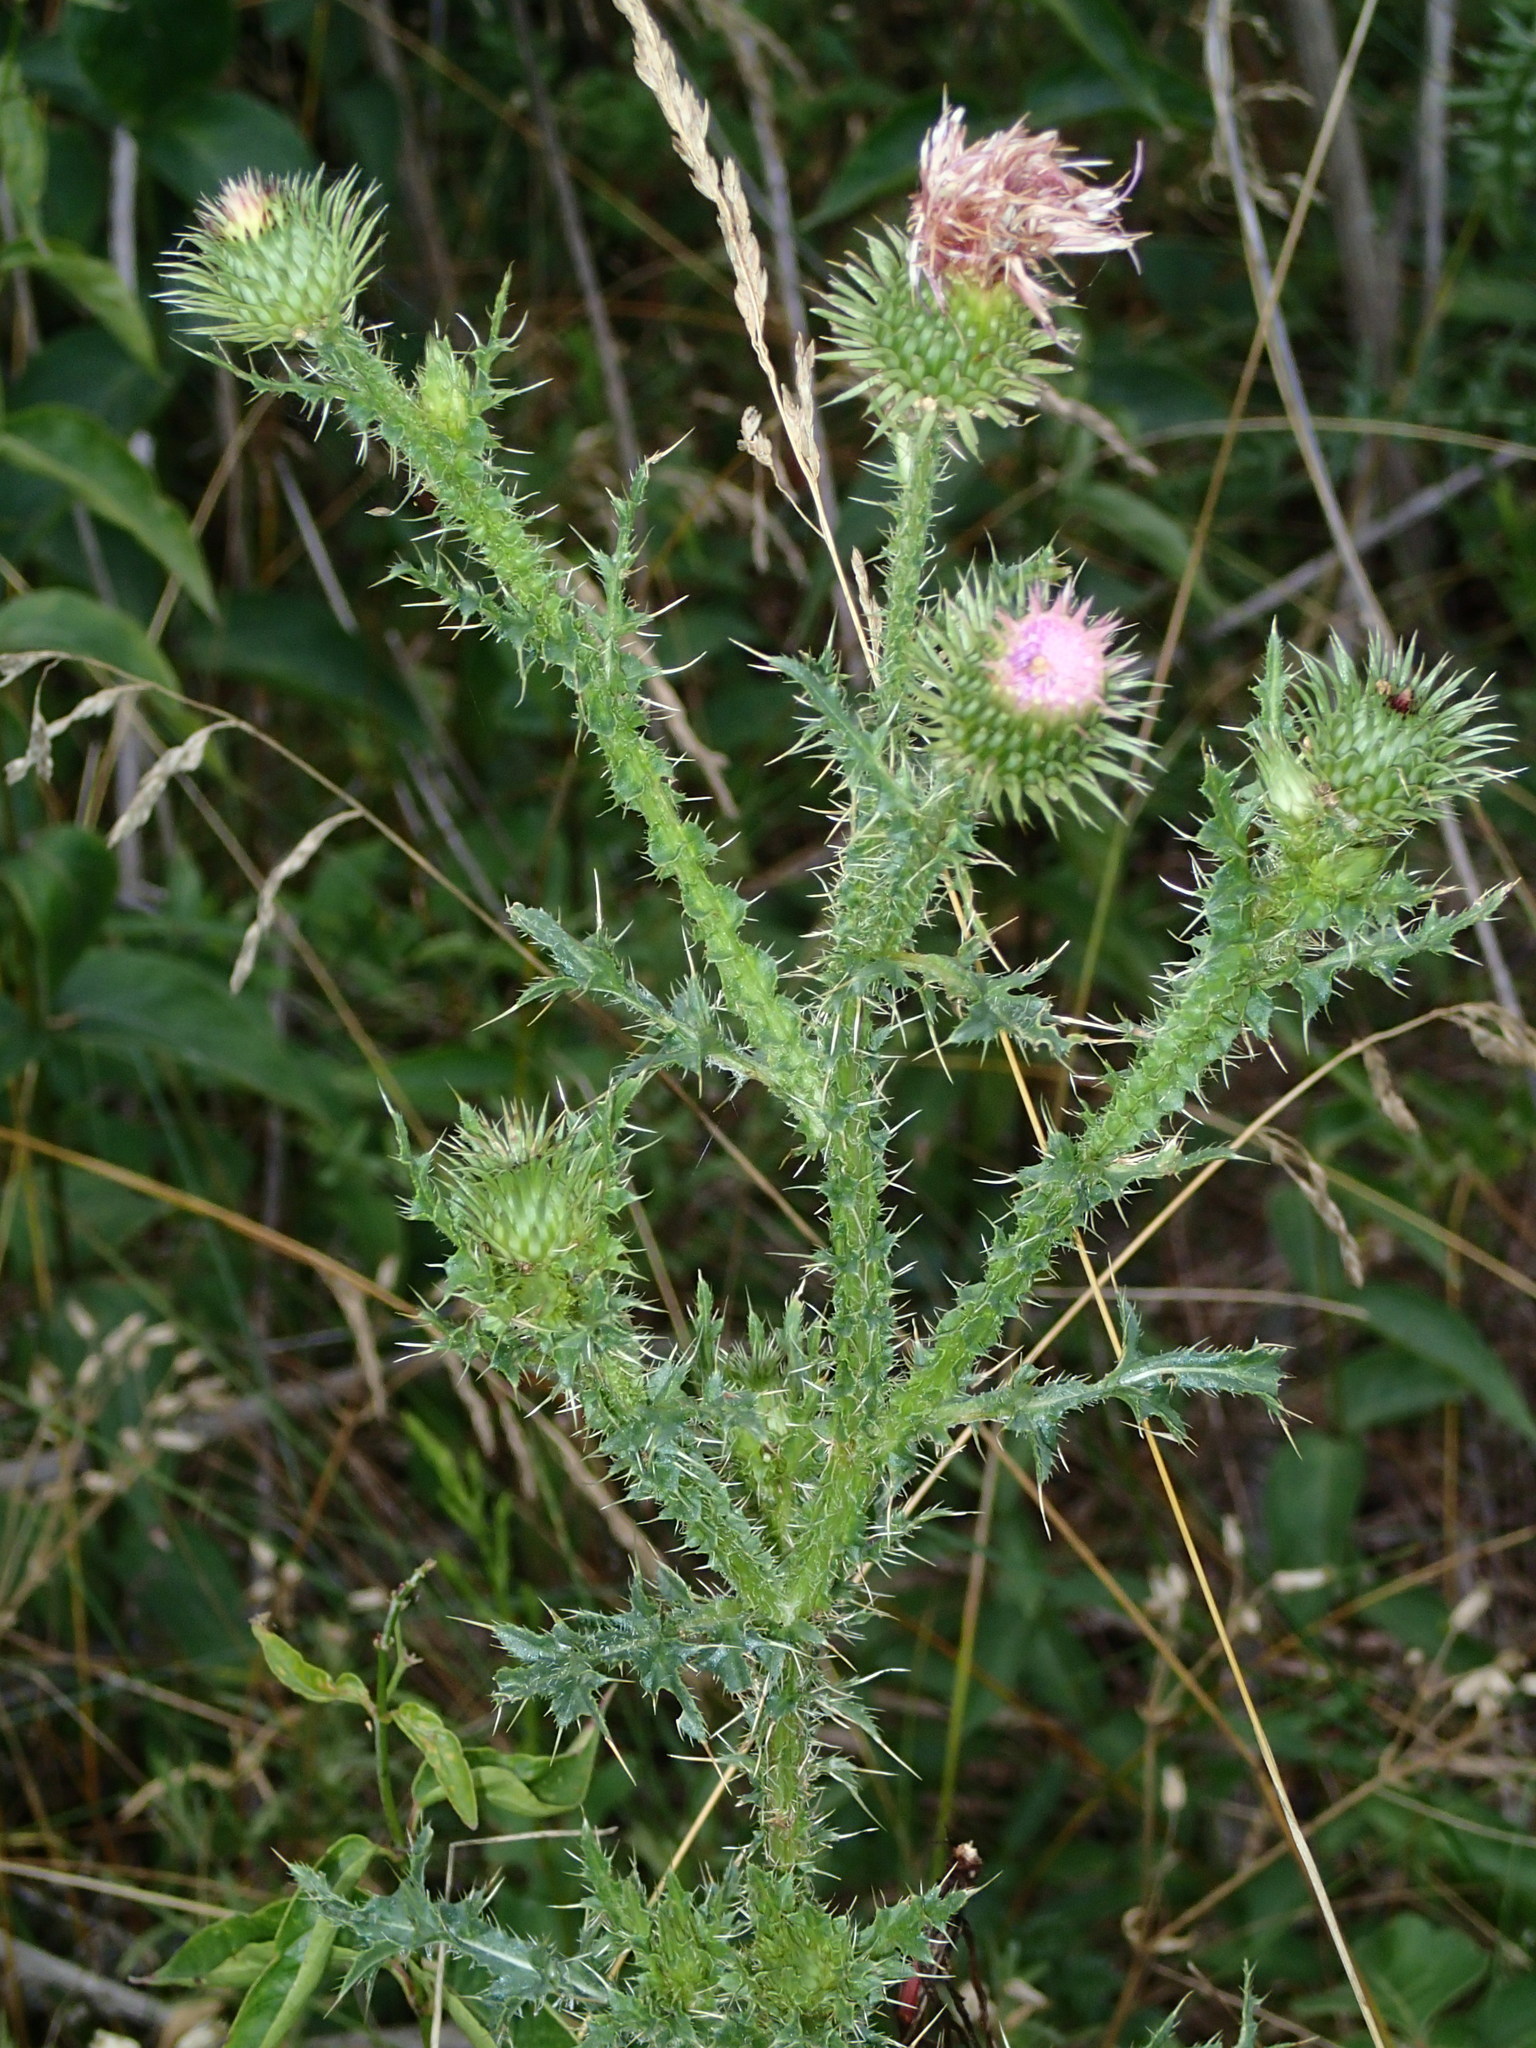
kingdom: Plantae
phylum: Tracheophyta
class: Magnoliopsida
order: Asterales
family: Asteraceae
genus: Carduus
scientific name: Carduus acanthoides
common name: Plumeless thistle
